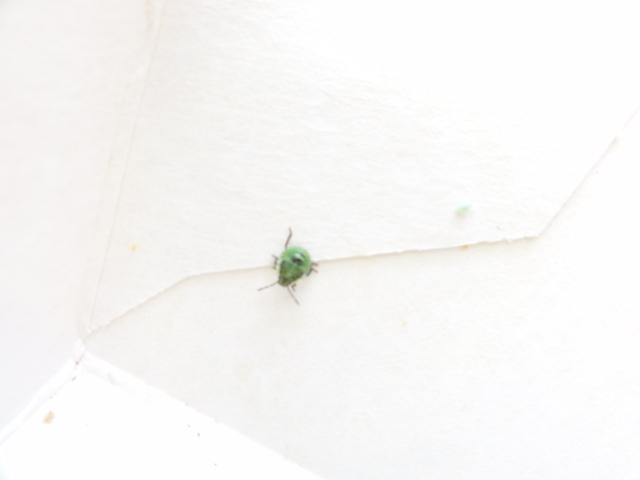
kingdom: Animalia
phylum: Arthropoda
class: Insecta
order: Hemiptera
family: Pentatomidae
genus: Palomena
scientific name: Palomena prasina
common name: Green shieldbug
